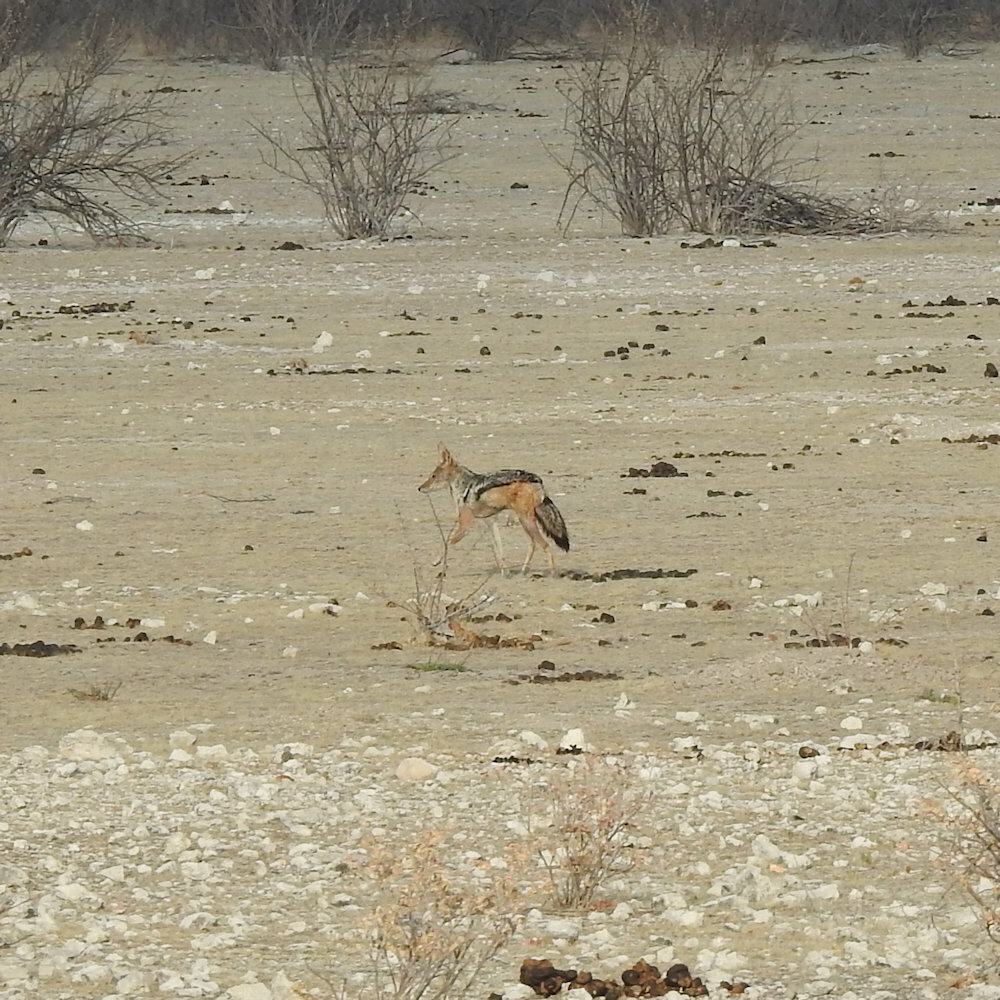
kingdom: Animalia
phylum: Chordata
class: Mammalia
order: Carnivora
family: Canidae
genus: Lupulella
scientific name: Lupulella
